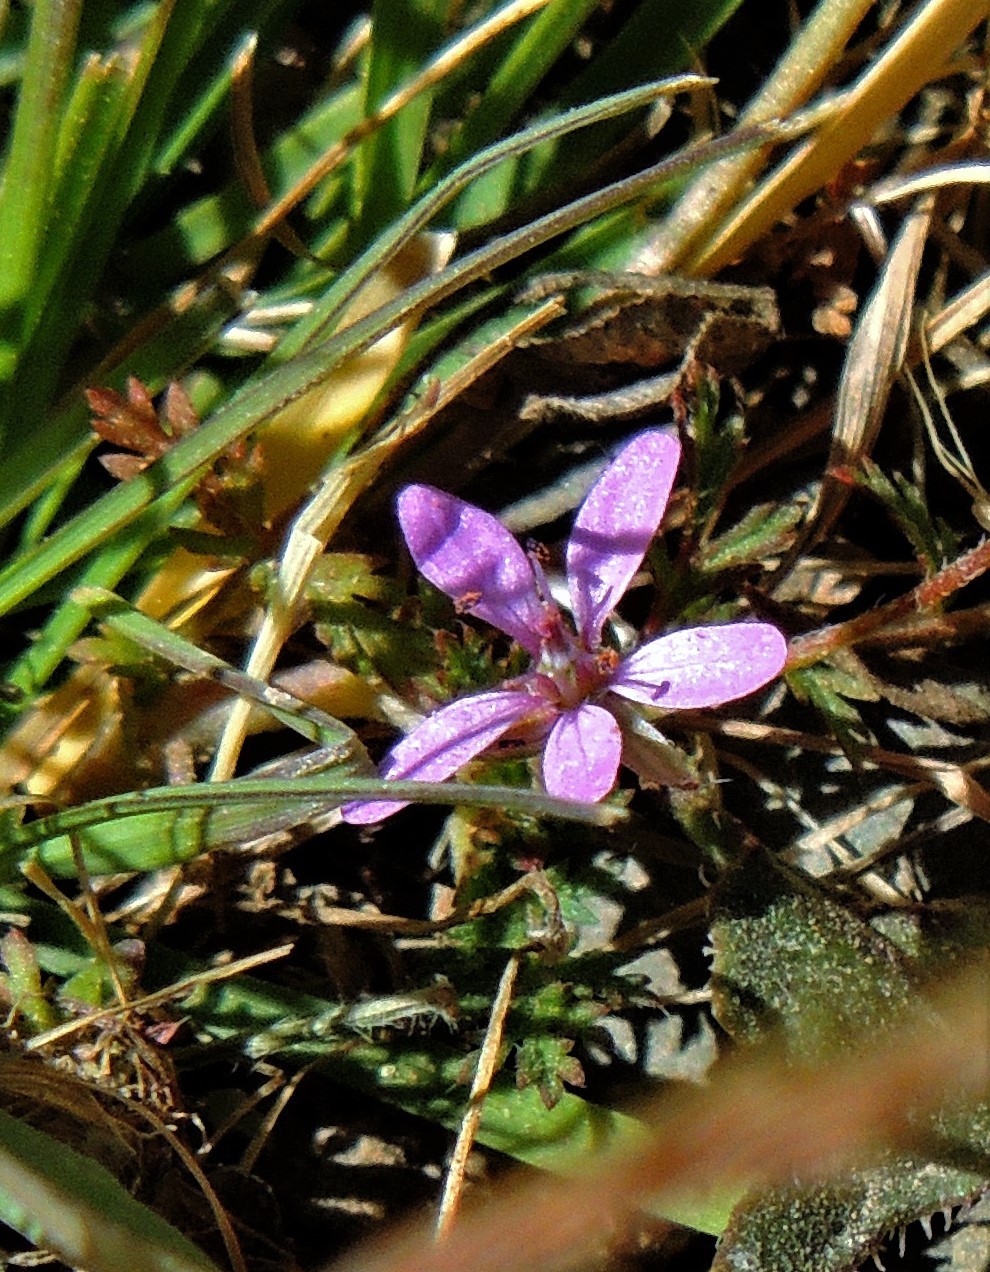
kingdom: Plantae
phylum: Tracheophyta
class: Magnoliopsida
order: Geraniales
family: Geraniaceae
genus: Erodium
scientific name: Erodium cicutarium
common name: Common stork's-bill
